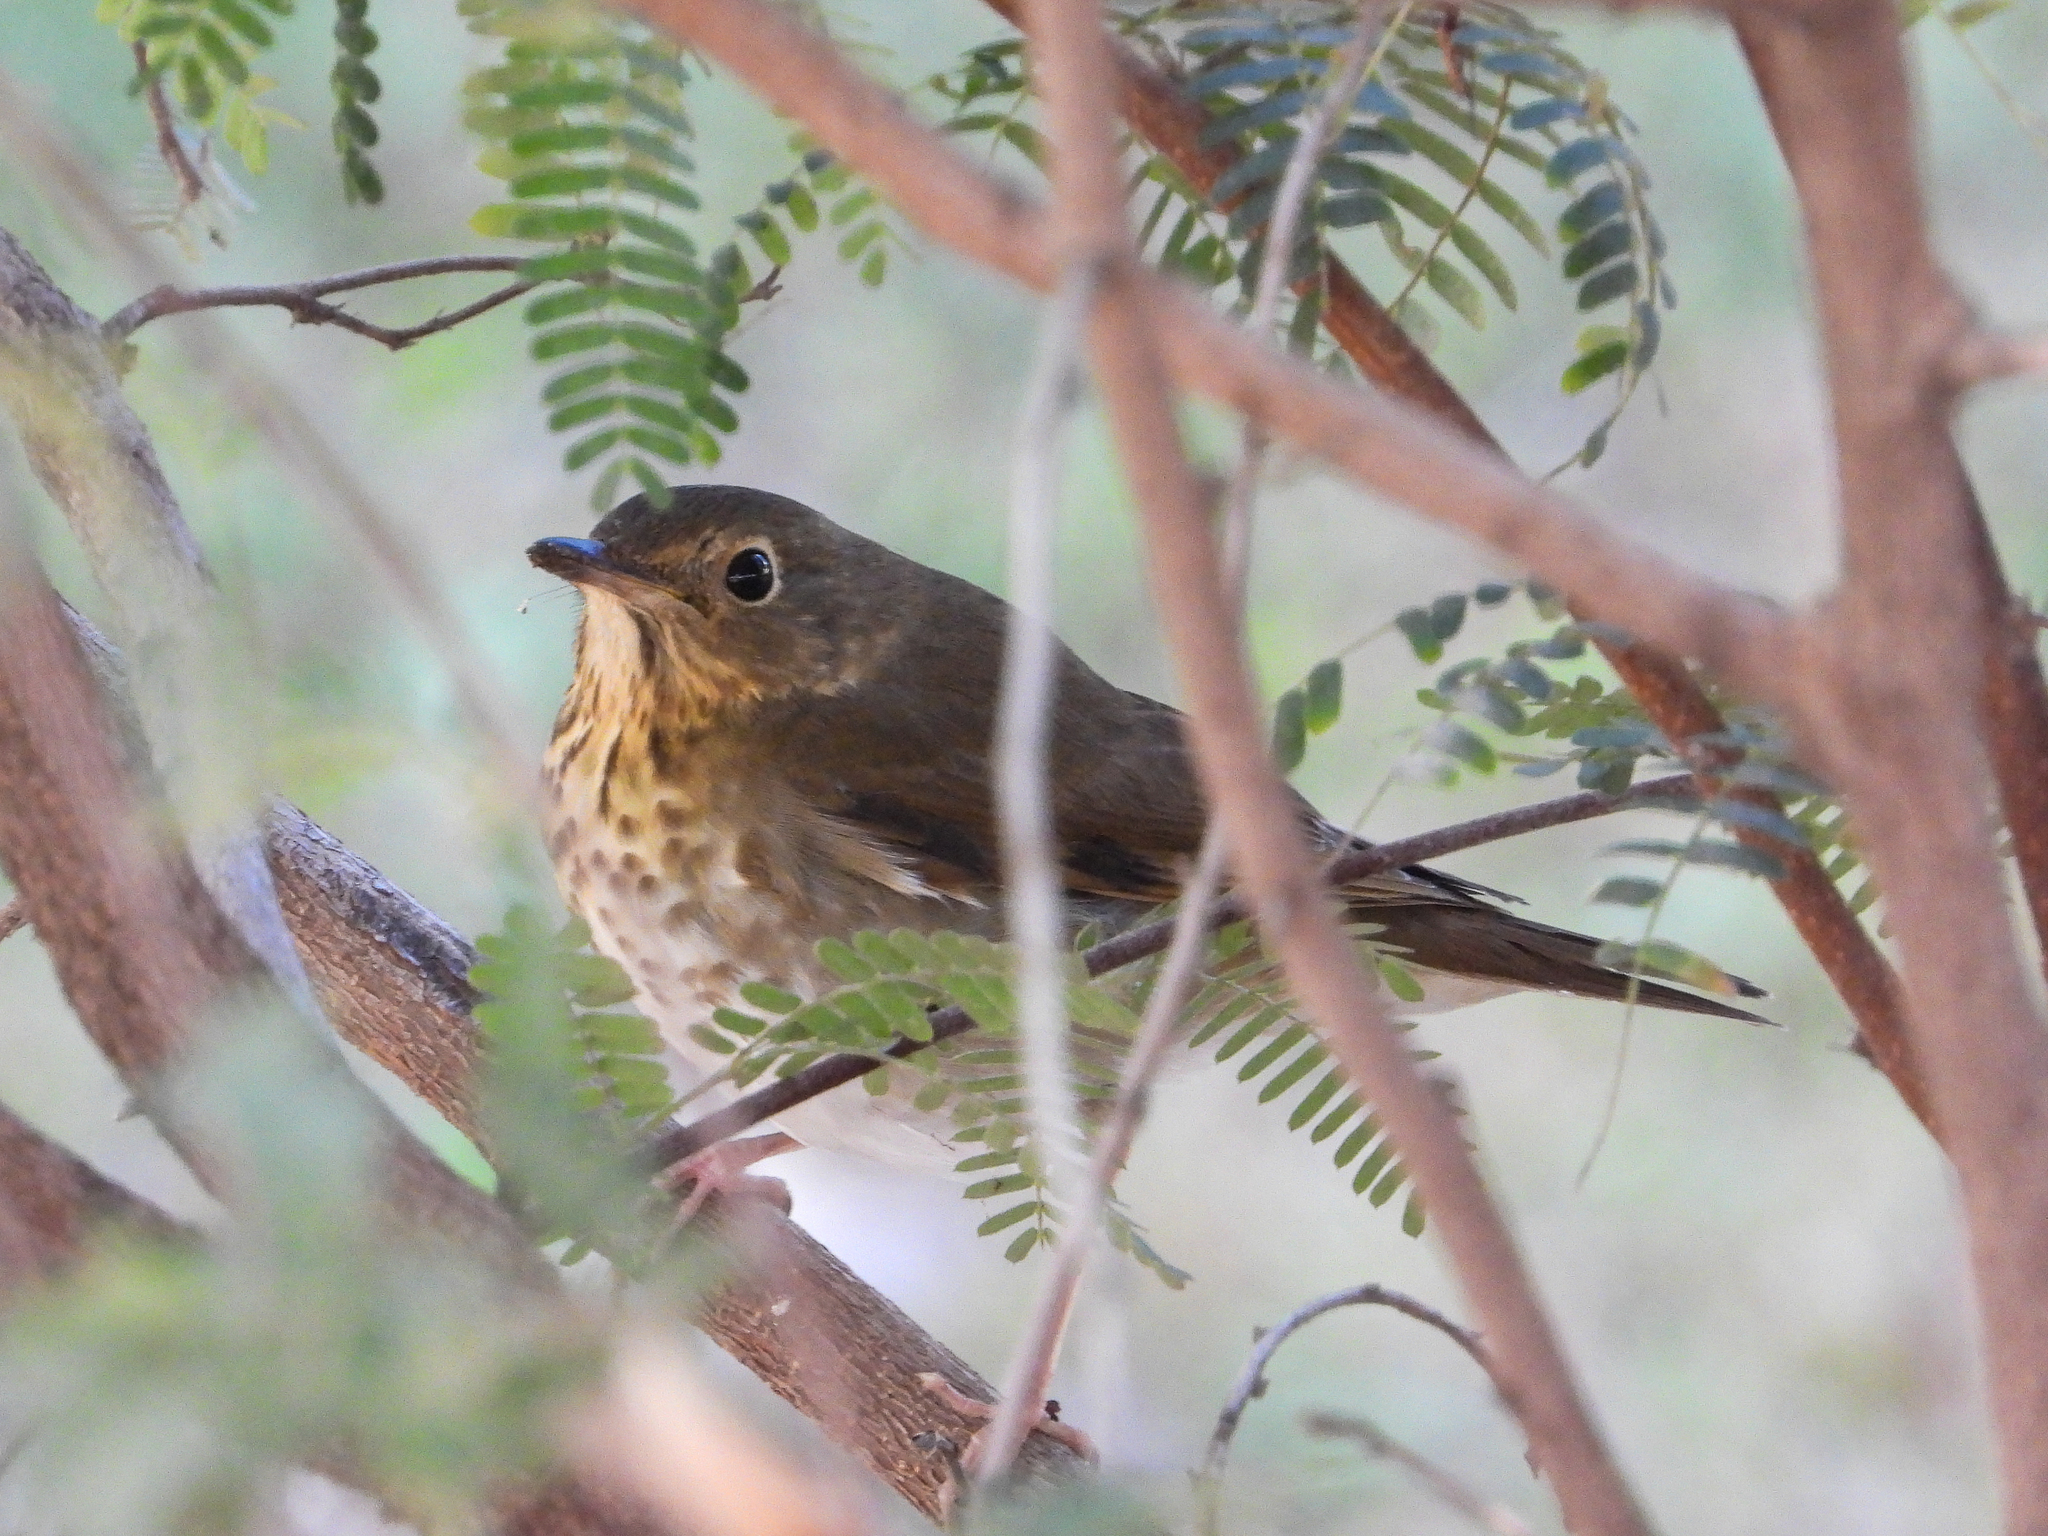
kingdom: Animalia
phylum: Chordata
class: Aves
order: Passeriformes
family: Turdidae
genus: Catharus
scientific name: Catharus ustulatus
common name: Swainson's thrush
